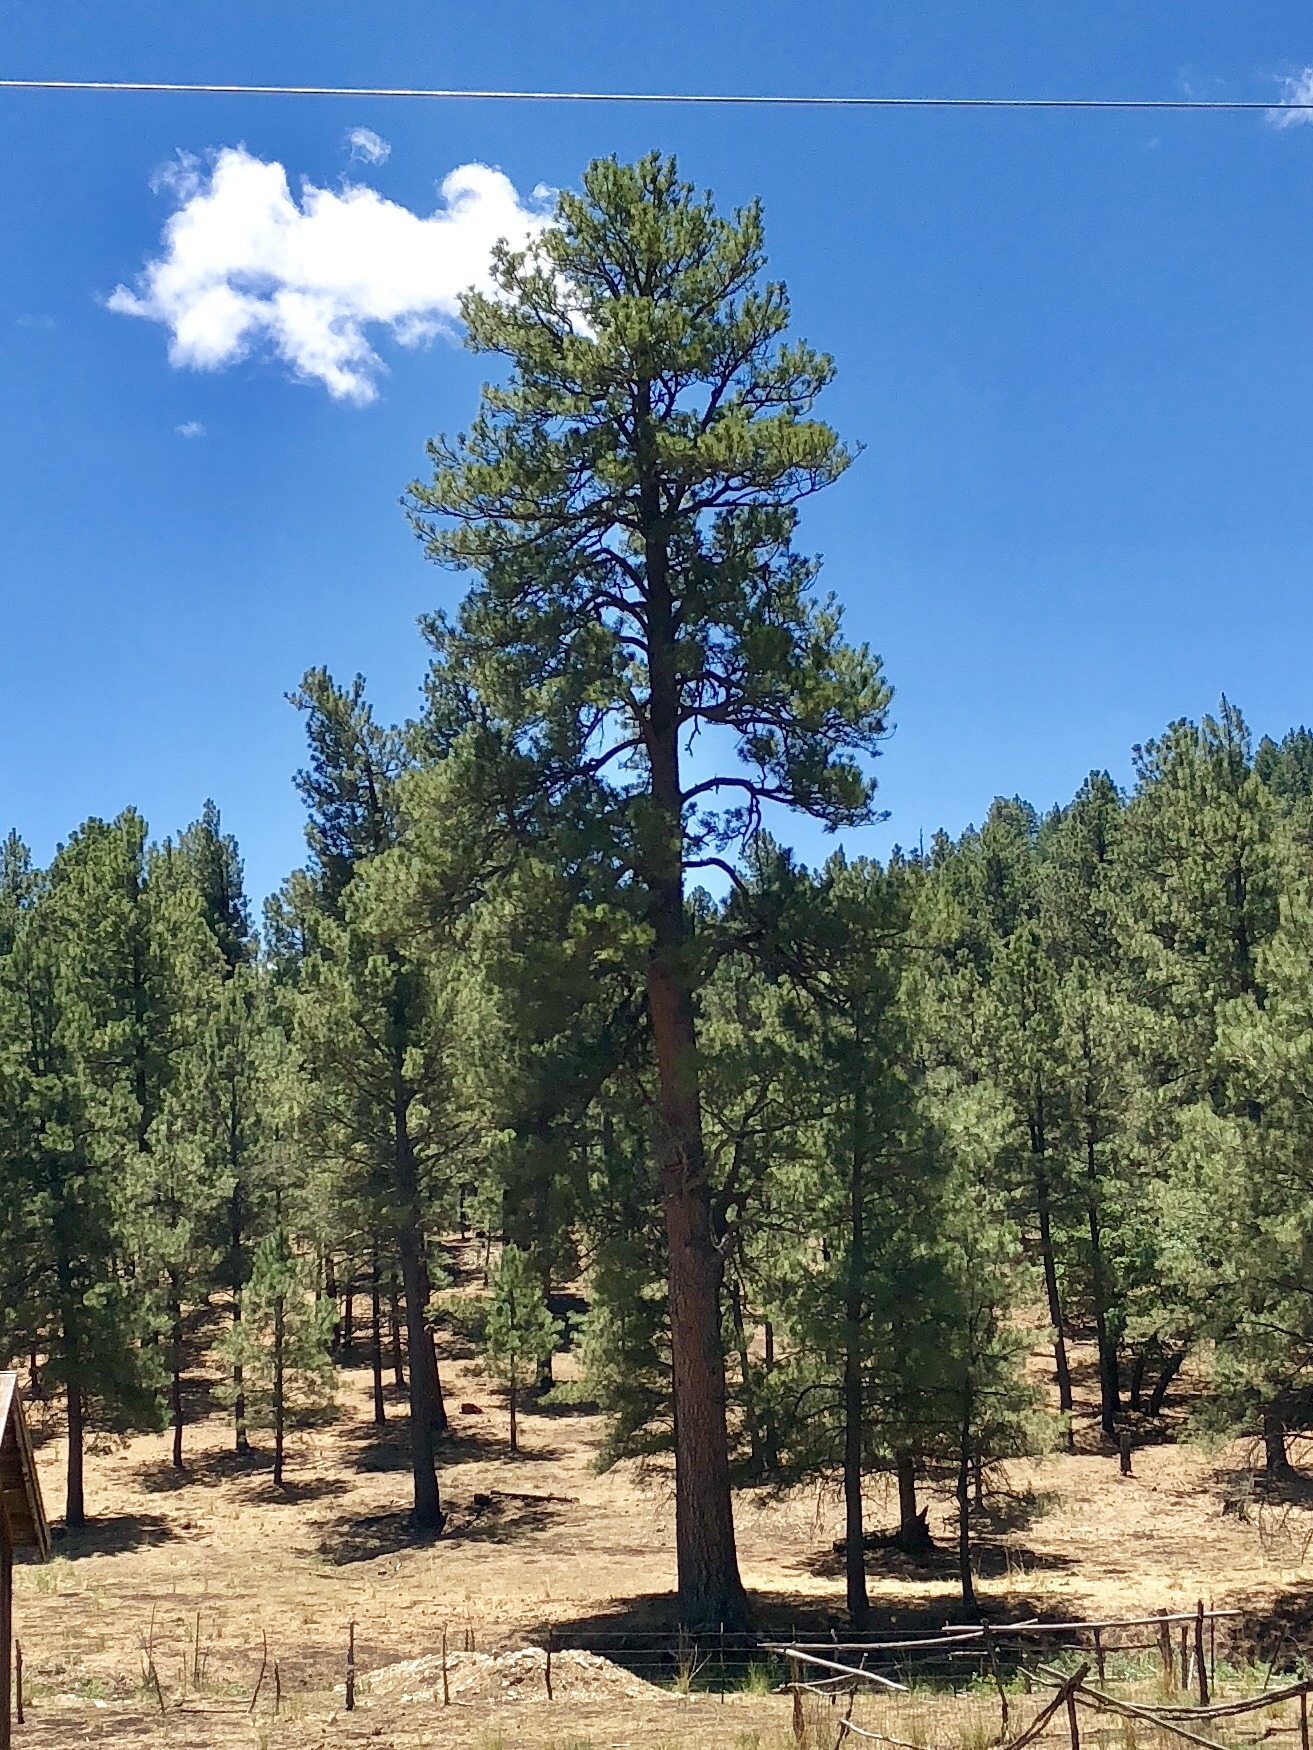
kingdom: Plantae
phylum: Tracheophyta
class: Pinopsida
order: Pinales
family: Pinaceae
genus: Pinus
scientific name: Pinus ponderosa
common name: Western yellow-pine
